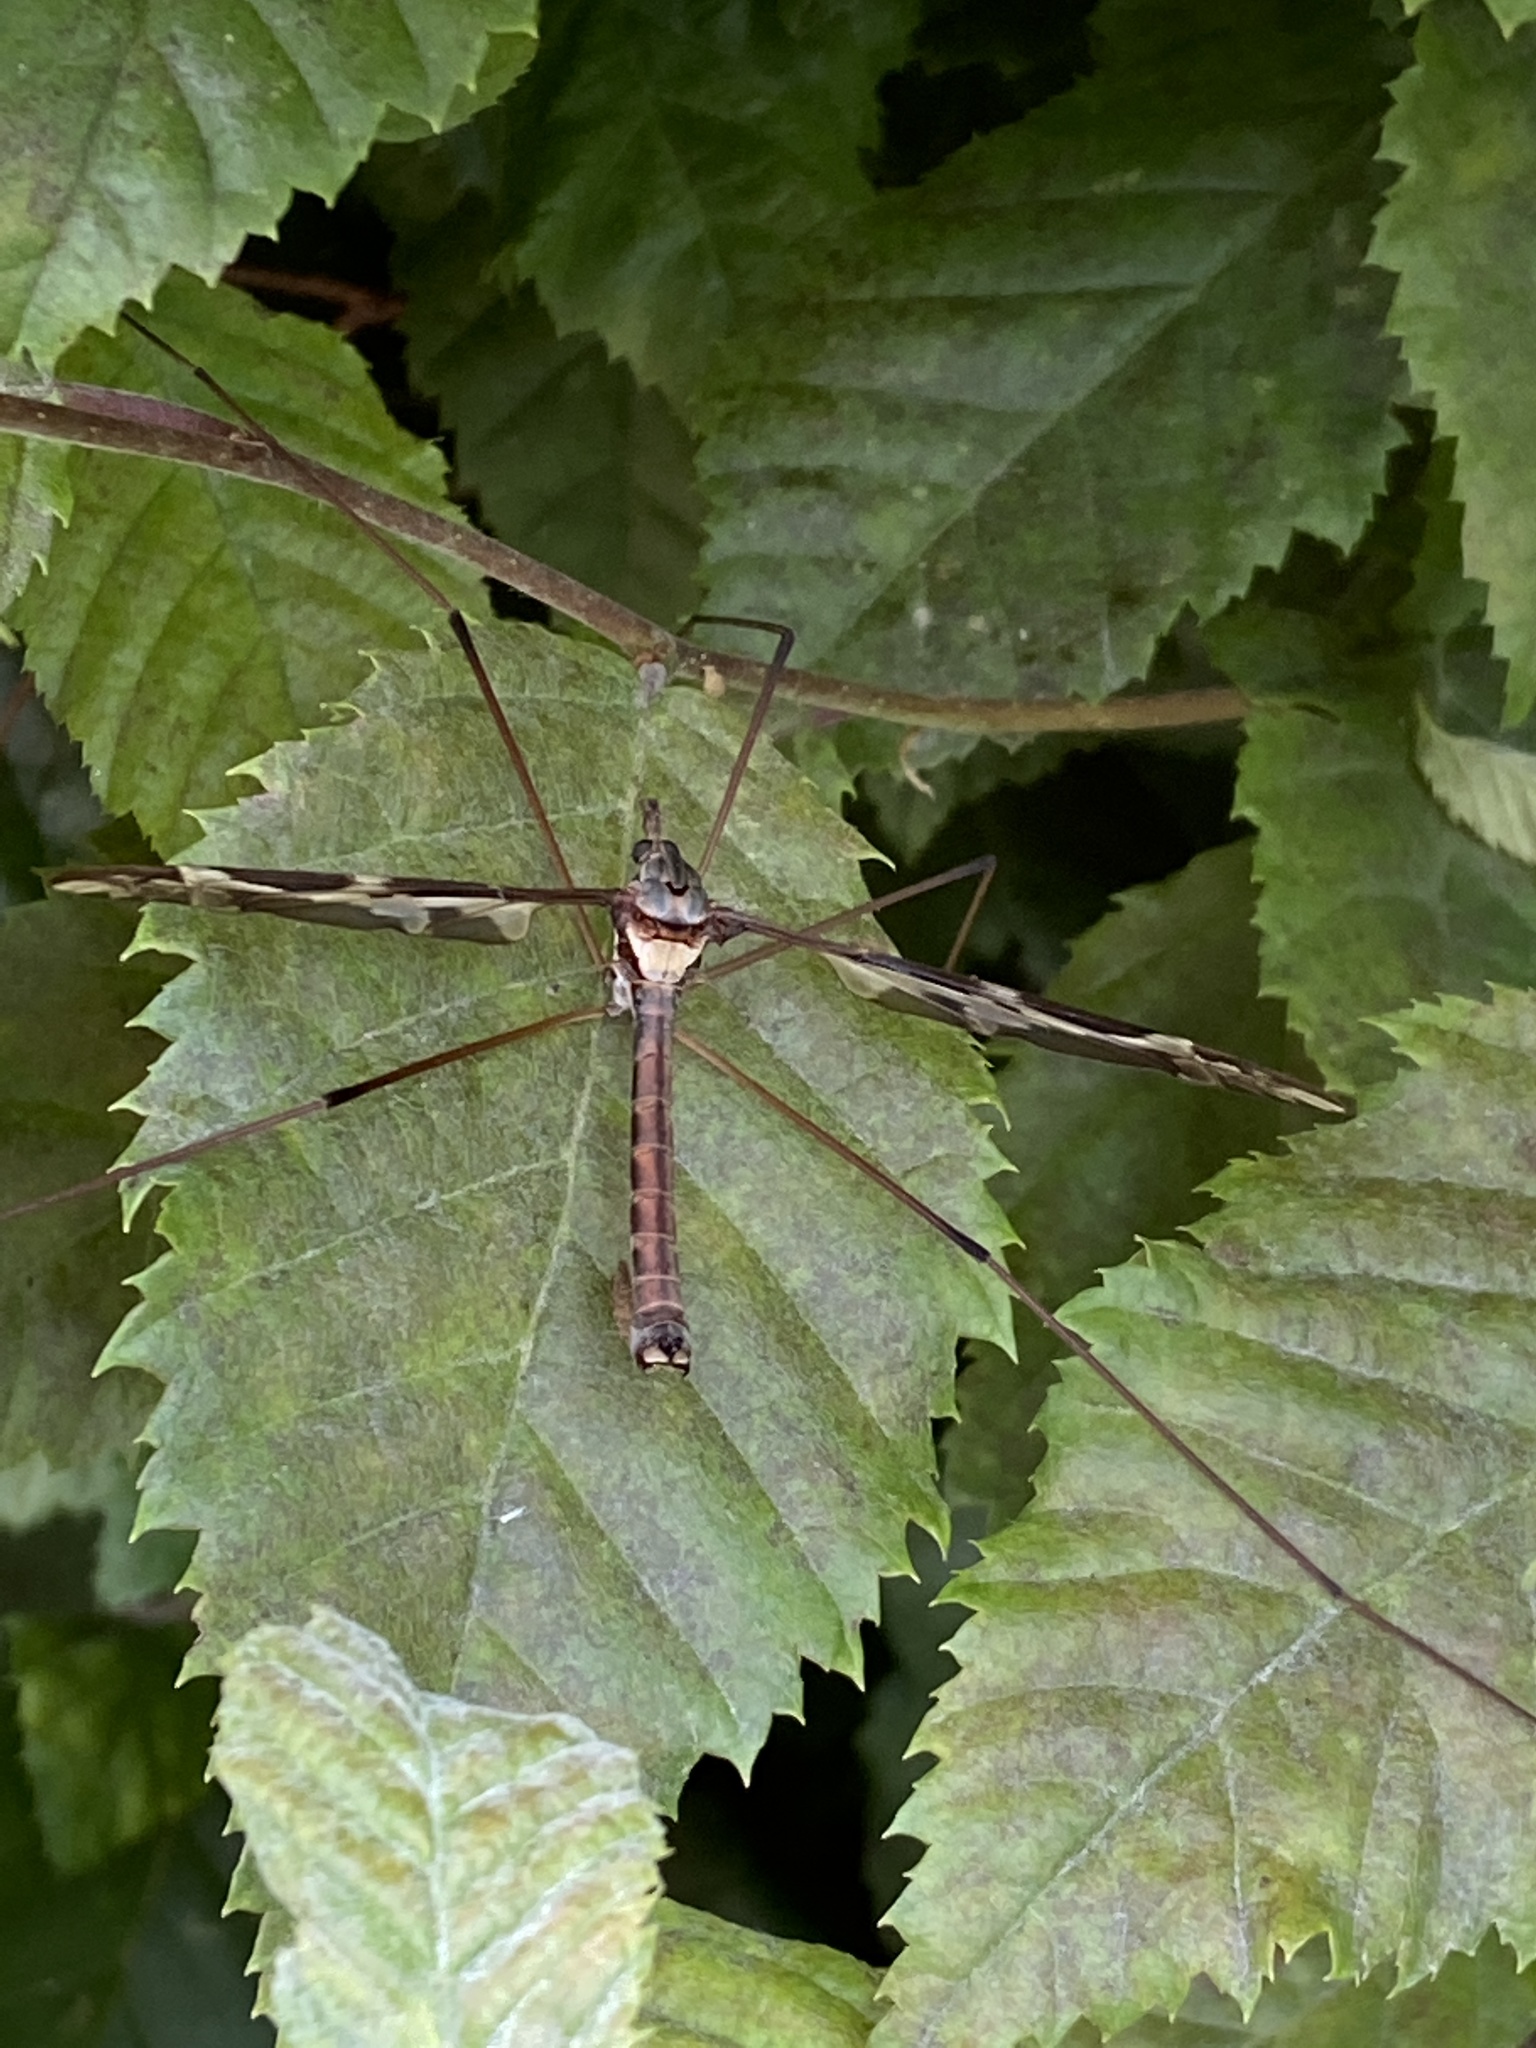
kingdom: Animalia
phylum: Arthropoda
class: Insecta
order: Diptera
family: Tipulidae
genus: Tipula
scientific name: Tipula maxima
